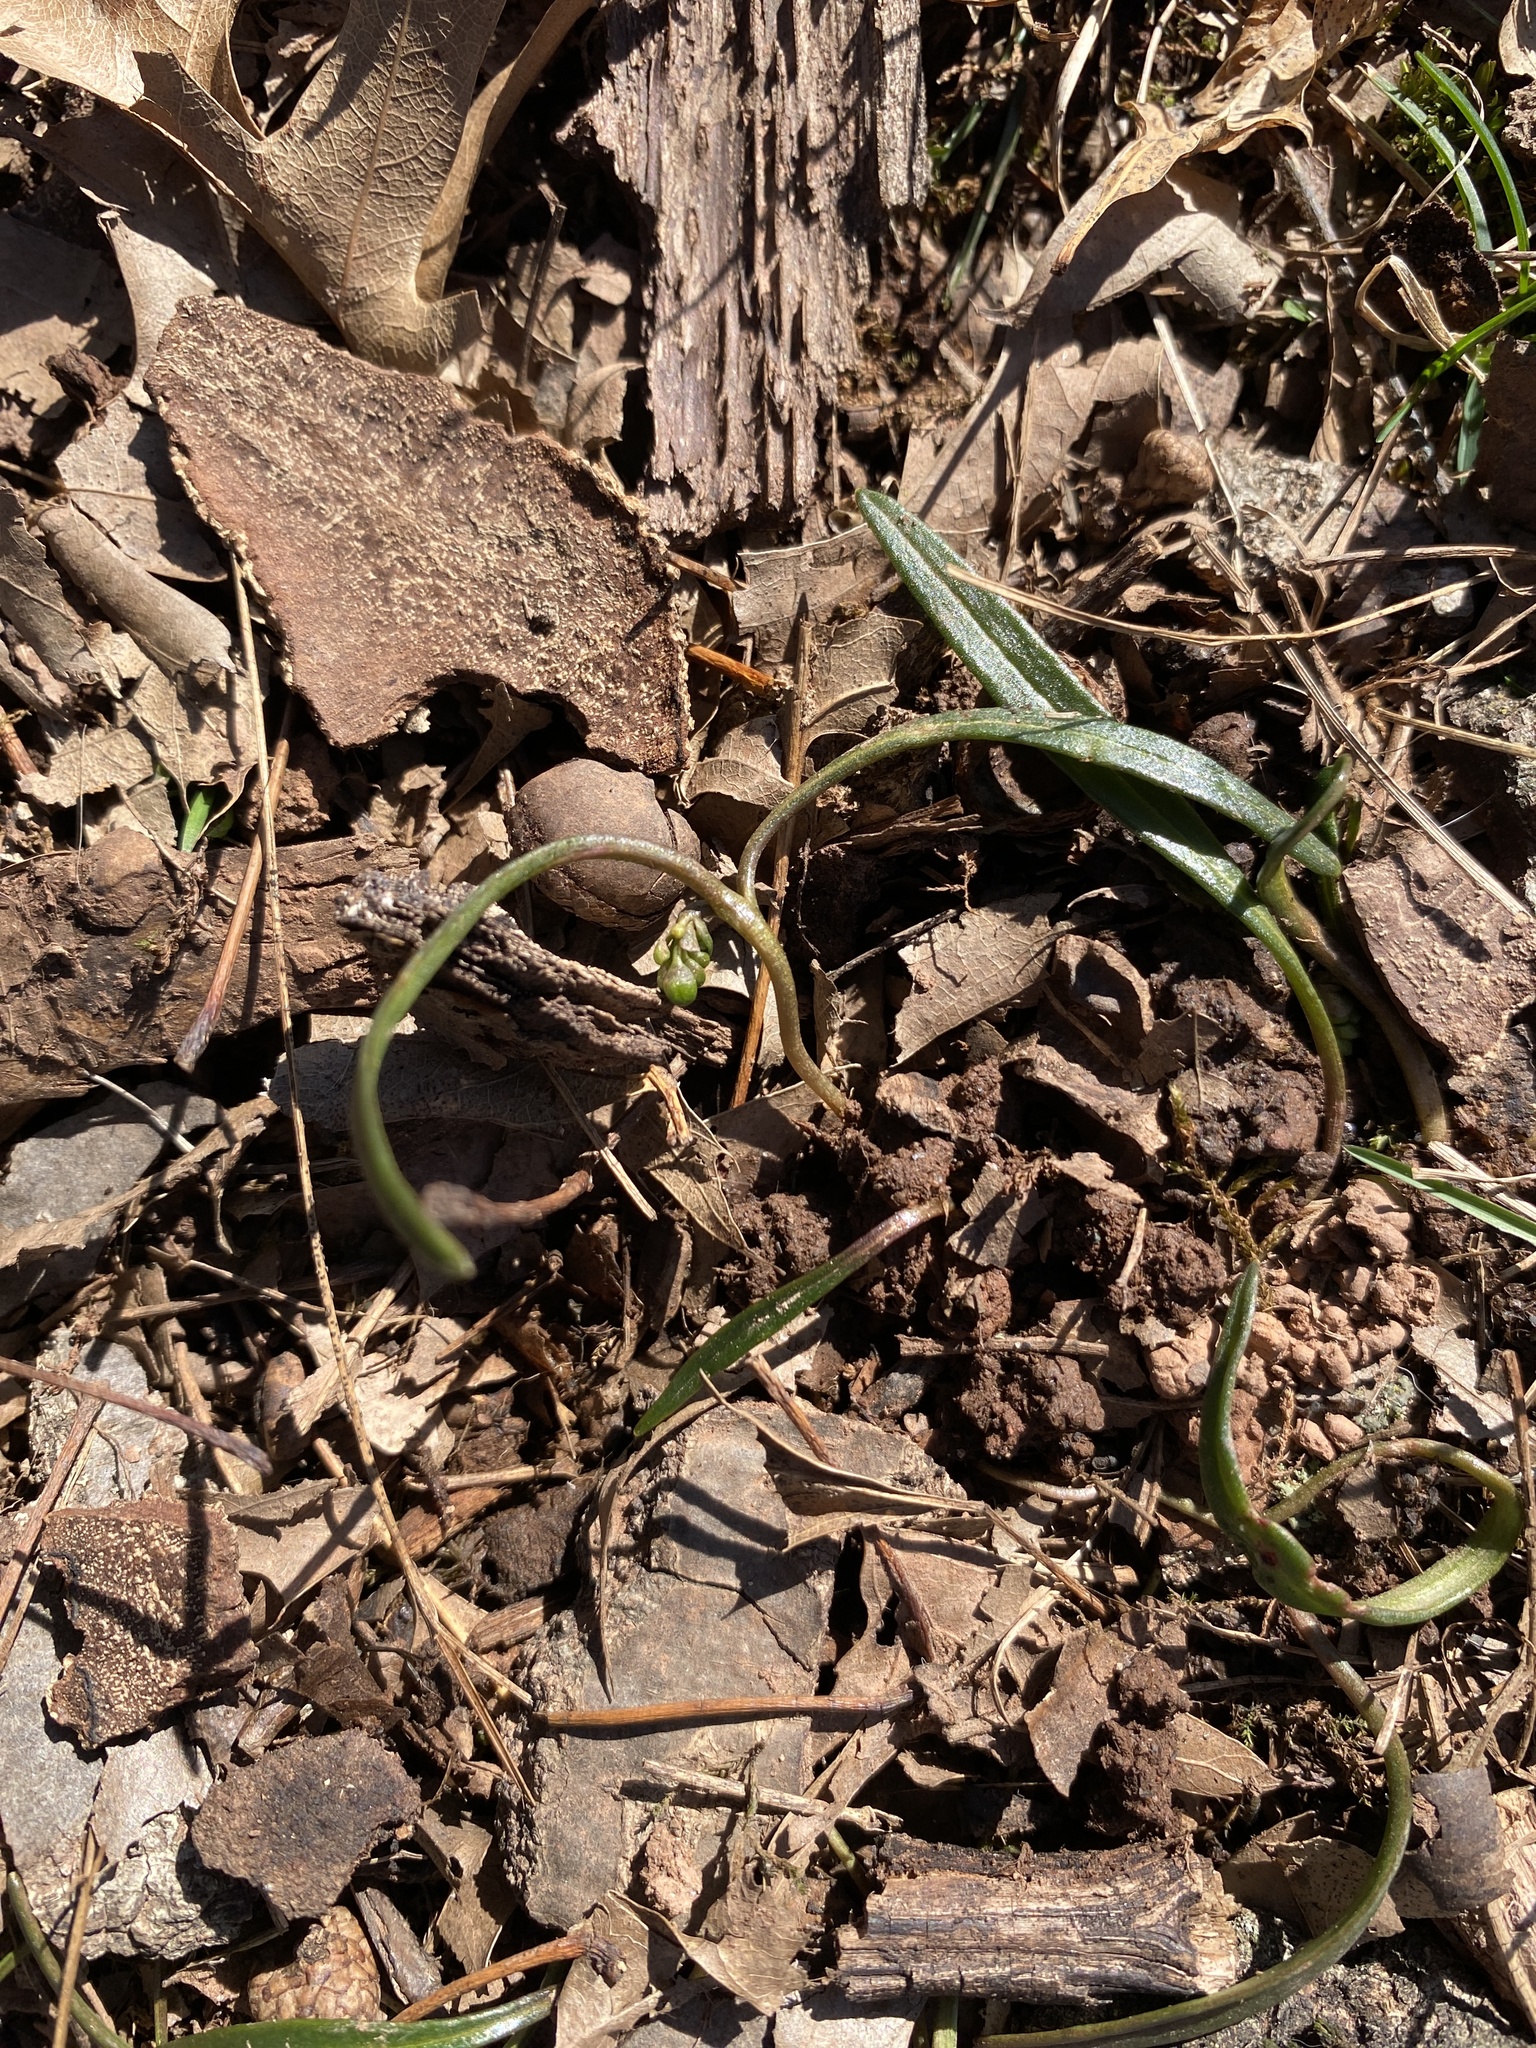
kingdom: Plantae
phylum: Tracheophyta
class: Magnoliopsida
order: Caryophyllales
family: Montiaceae
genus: Claytonia
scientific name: Claytonia virginica
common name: Virginia springbeauty
